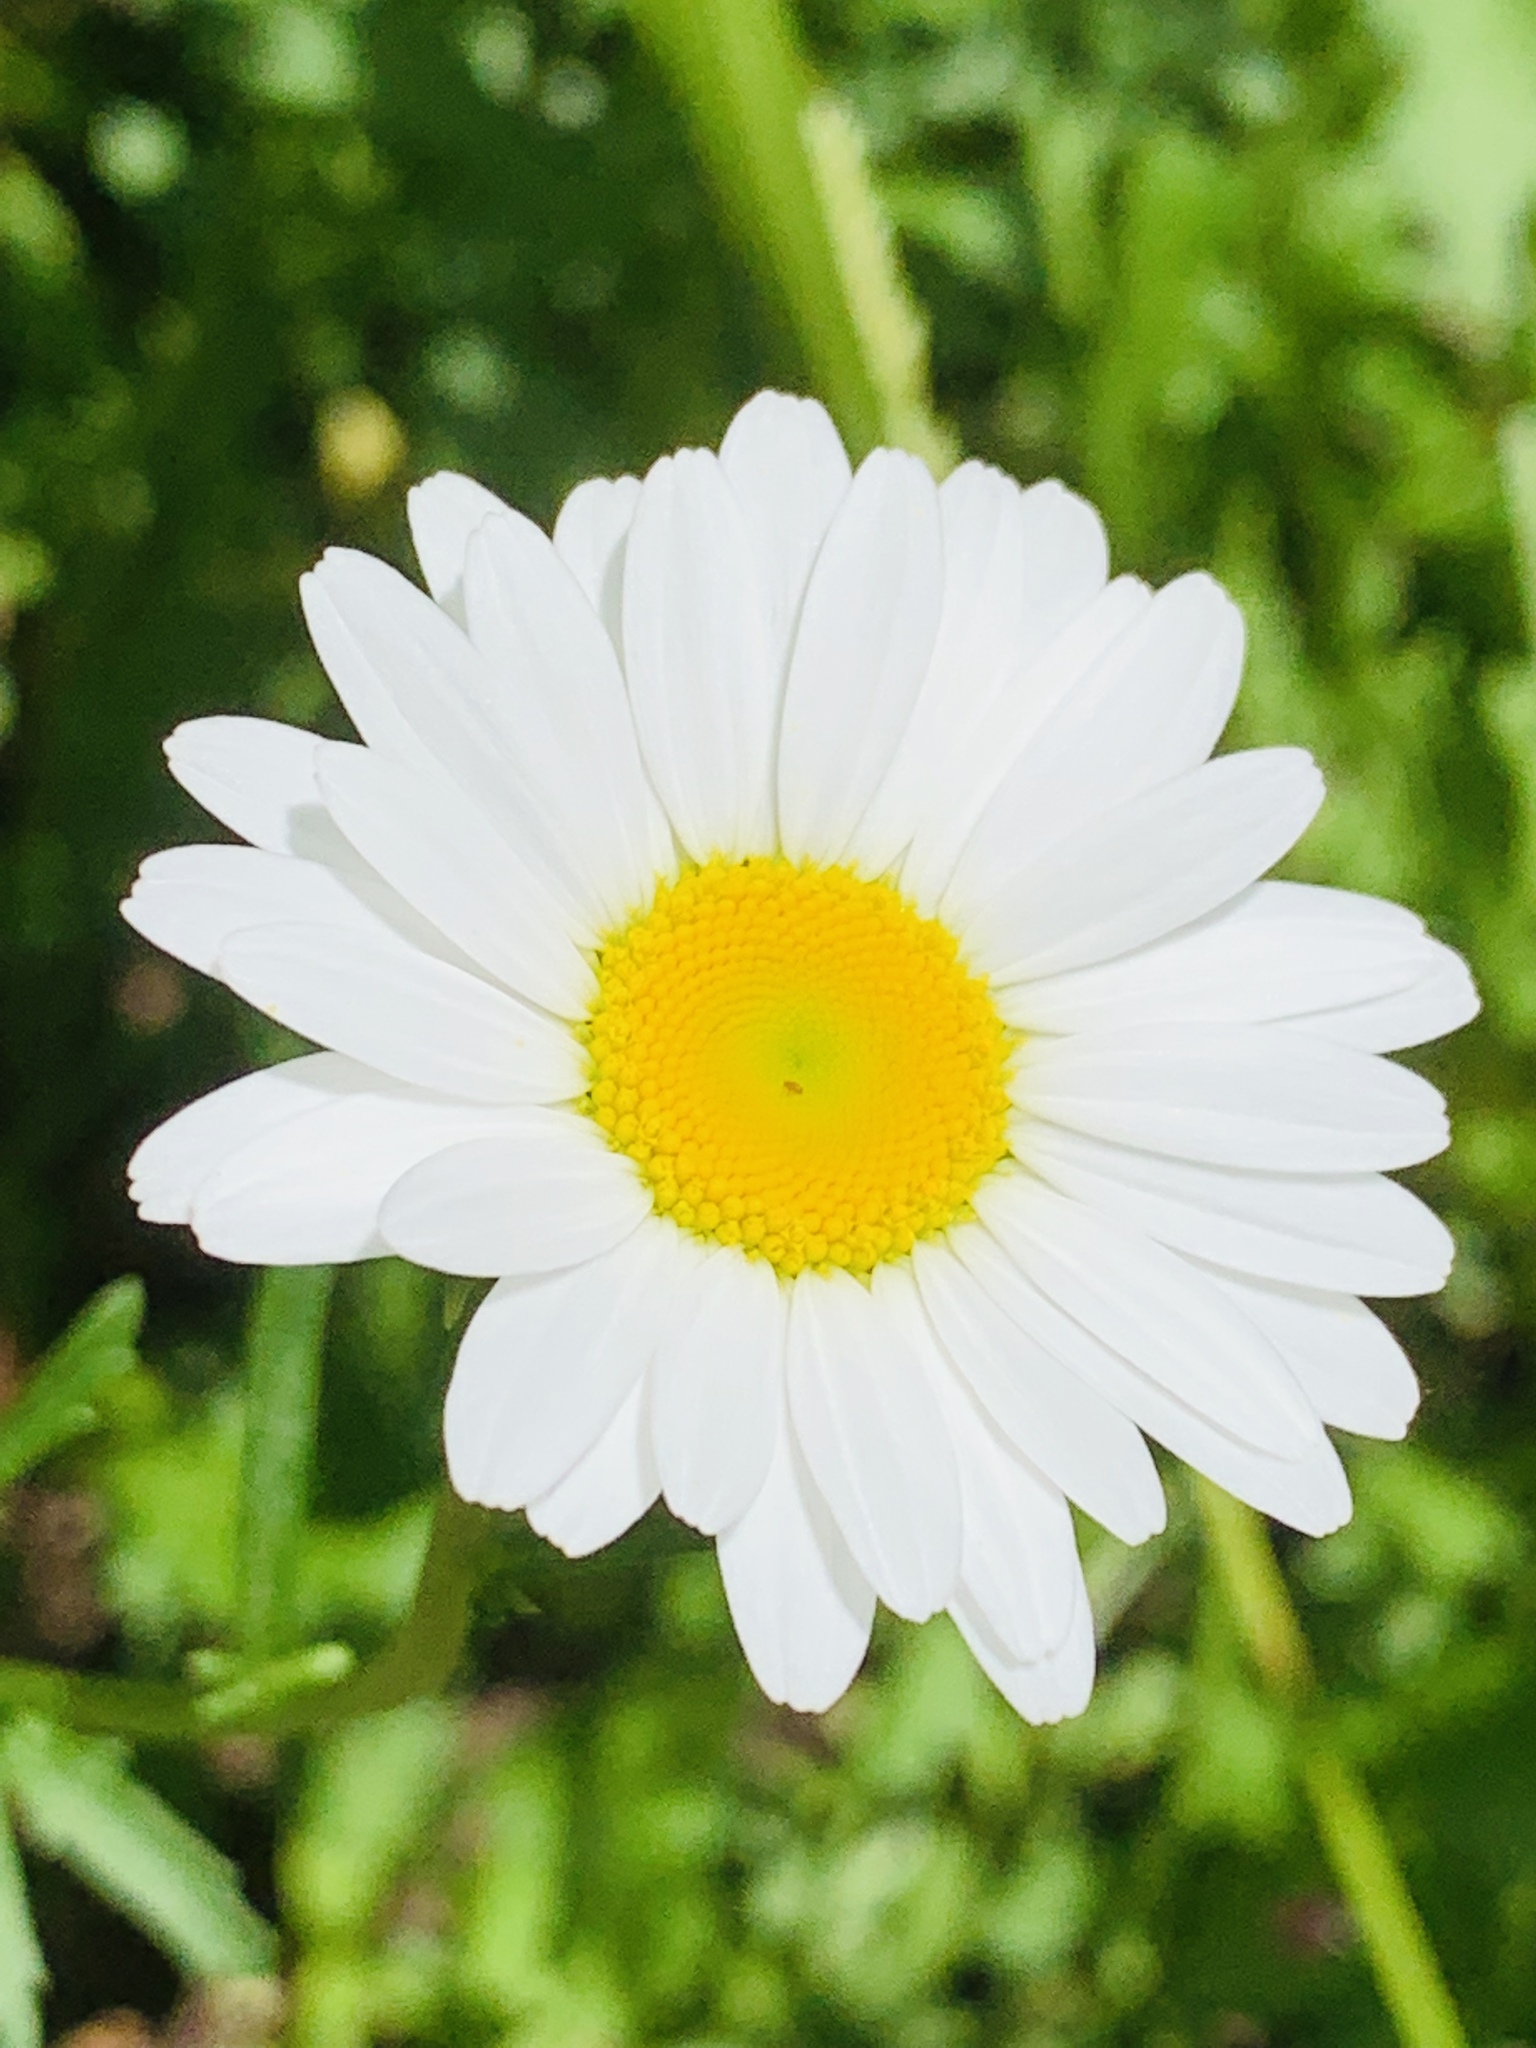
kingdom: Plantae
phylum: Tracheophyta
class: Magnoliopsida
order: Asterales
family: Asteraceae
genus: Leucanthemum
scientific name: Leucanthemum vulgare
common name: Oxeye daisy
